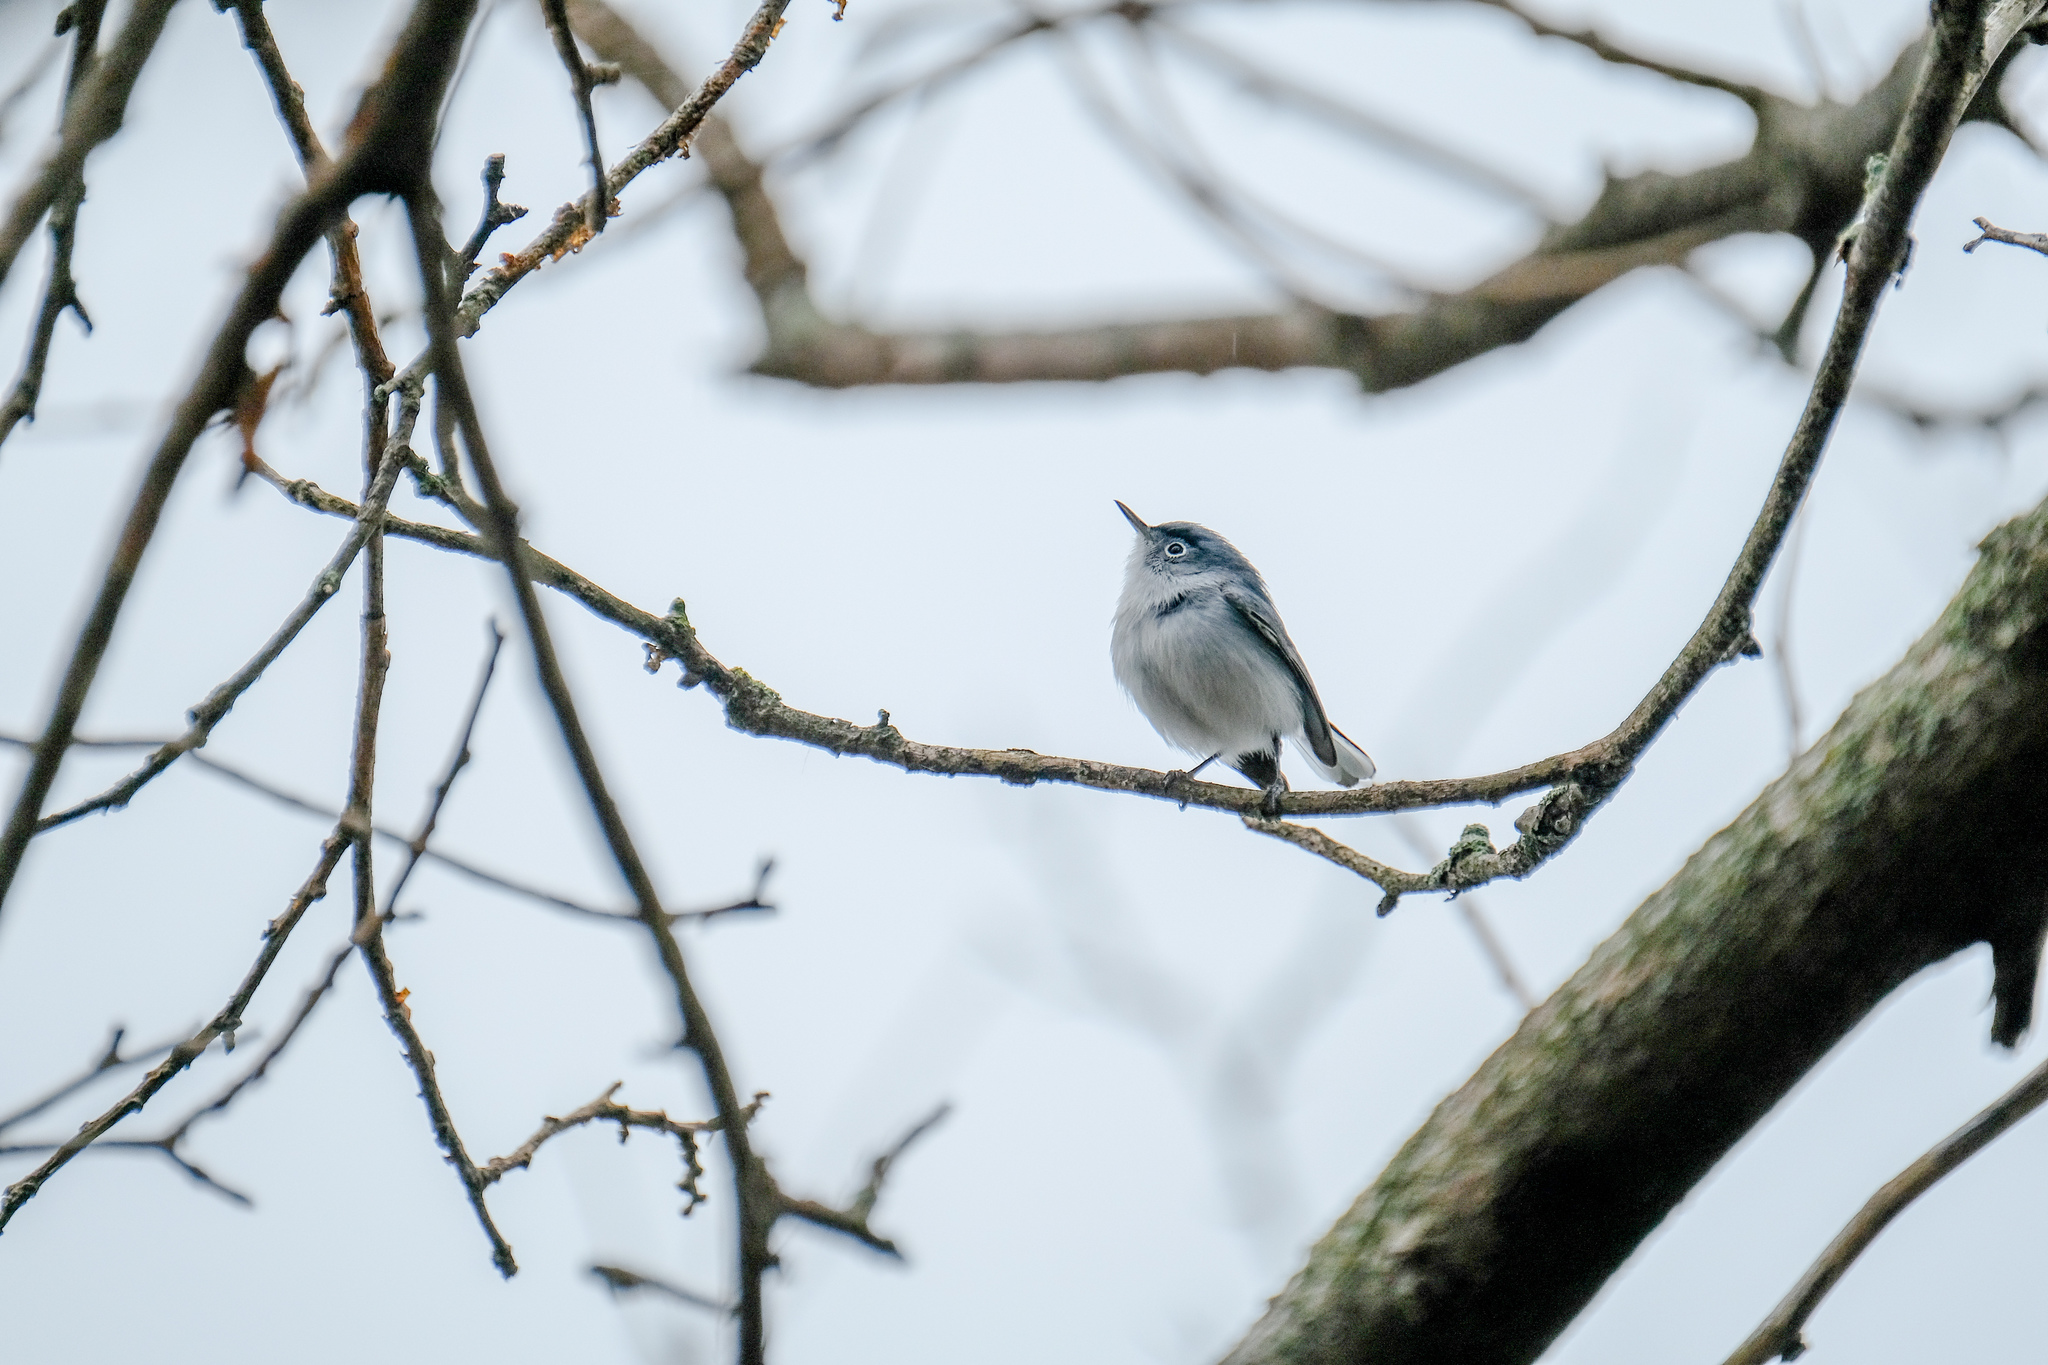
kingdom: Animalia
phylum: Chordata
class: Aves
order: Passeriformes
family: Polioptilidae
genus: Polioptila
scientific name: Polioptila caerulea
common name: Blue-gray gnatcatcher
